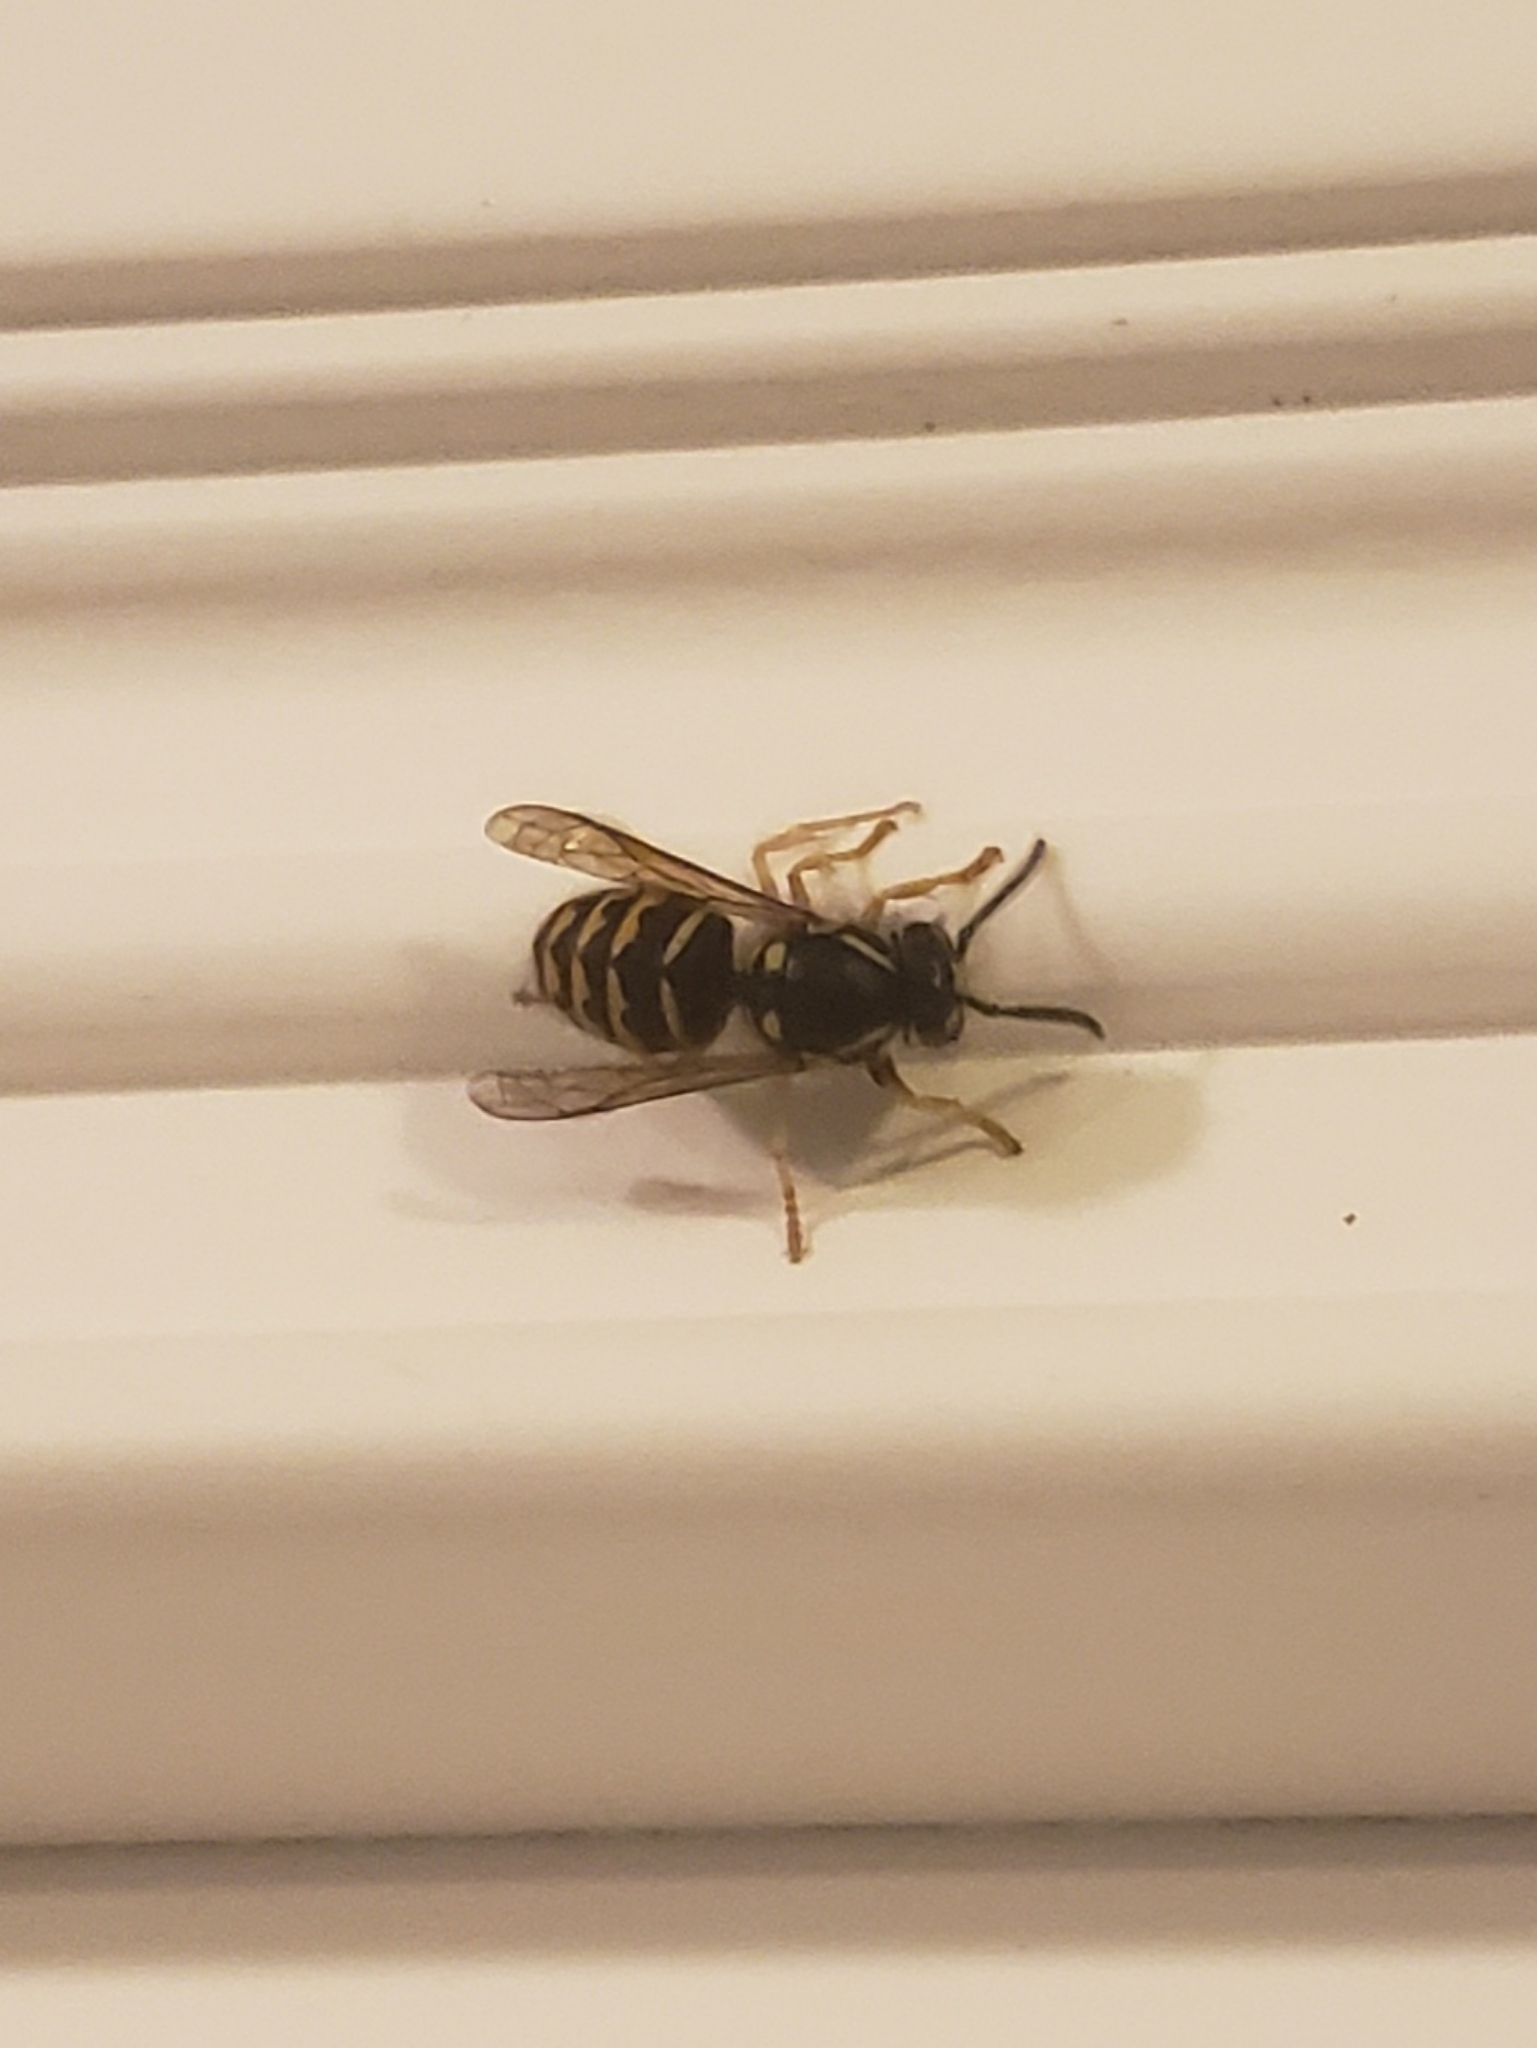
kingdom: Animalia
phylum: Arthropoda
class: Insecta
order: Hymenoptera
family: Vespidae
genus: Dolichovespula
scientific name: Dolichovespula arenaria
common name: Aerial yellowjacket
